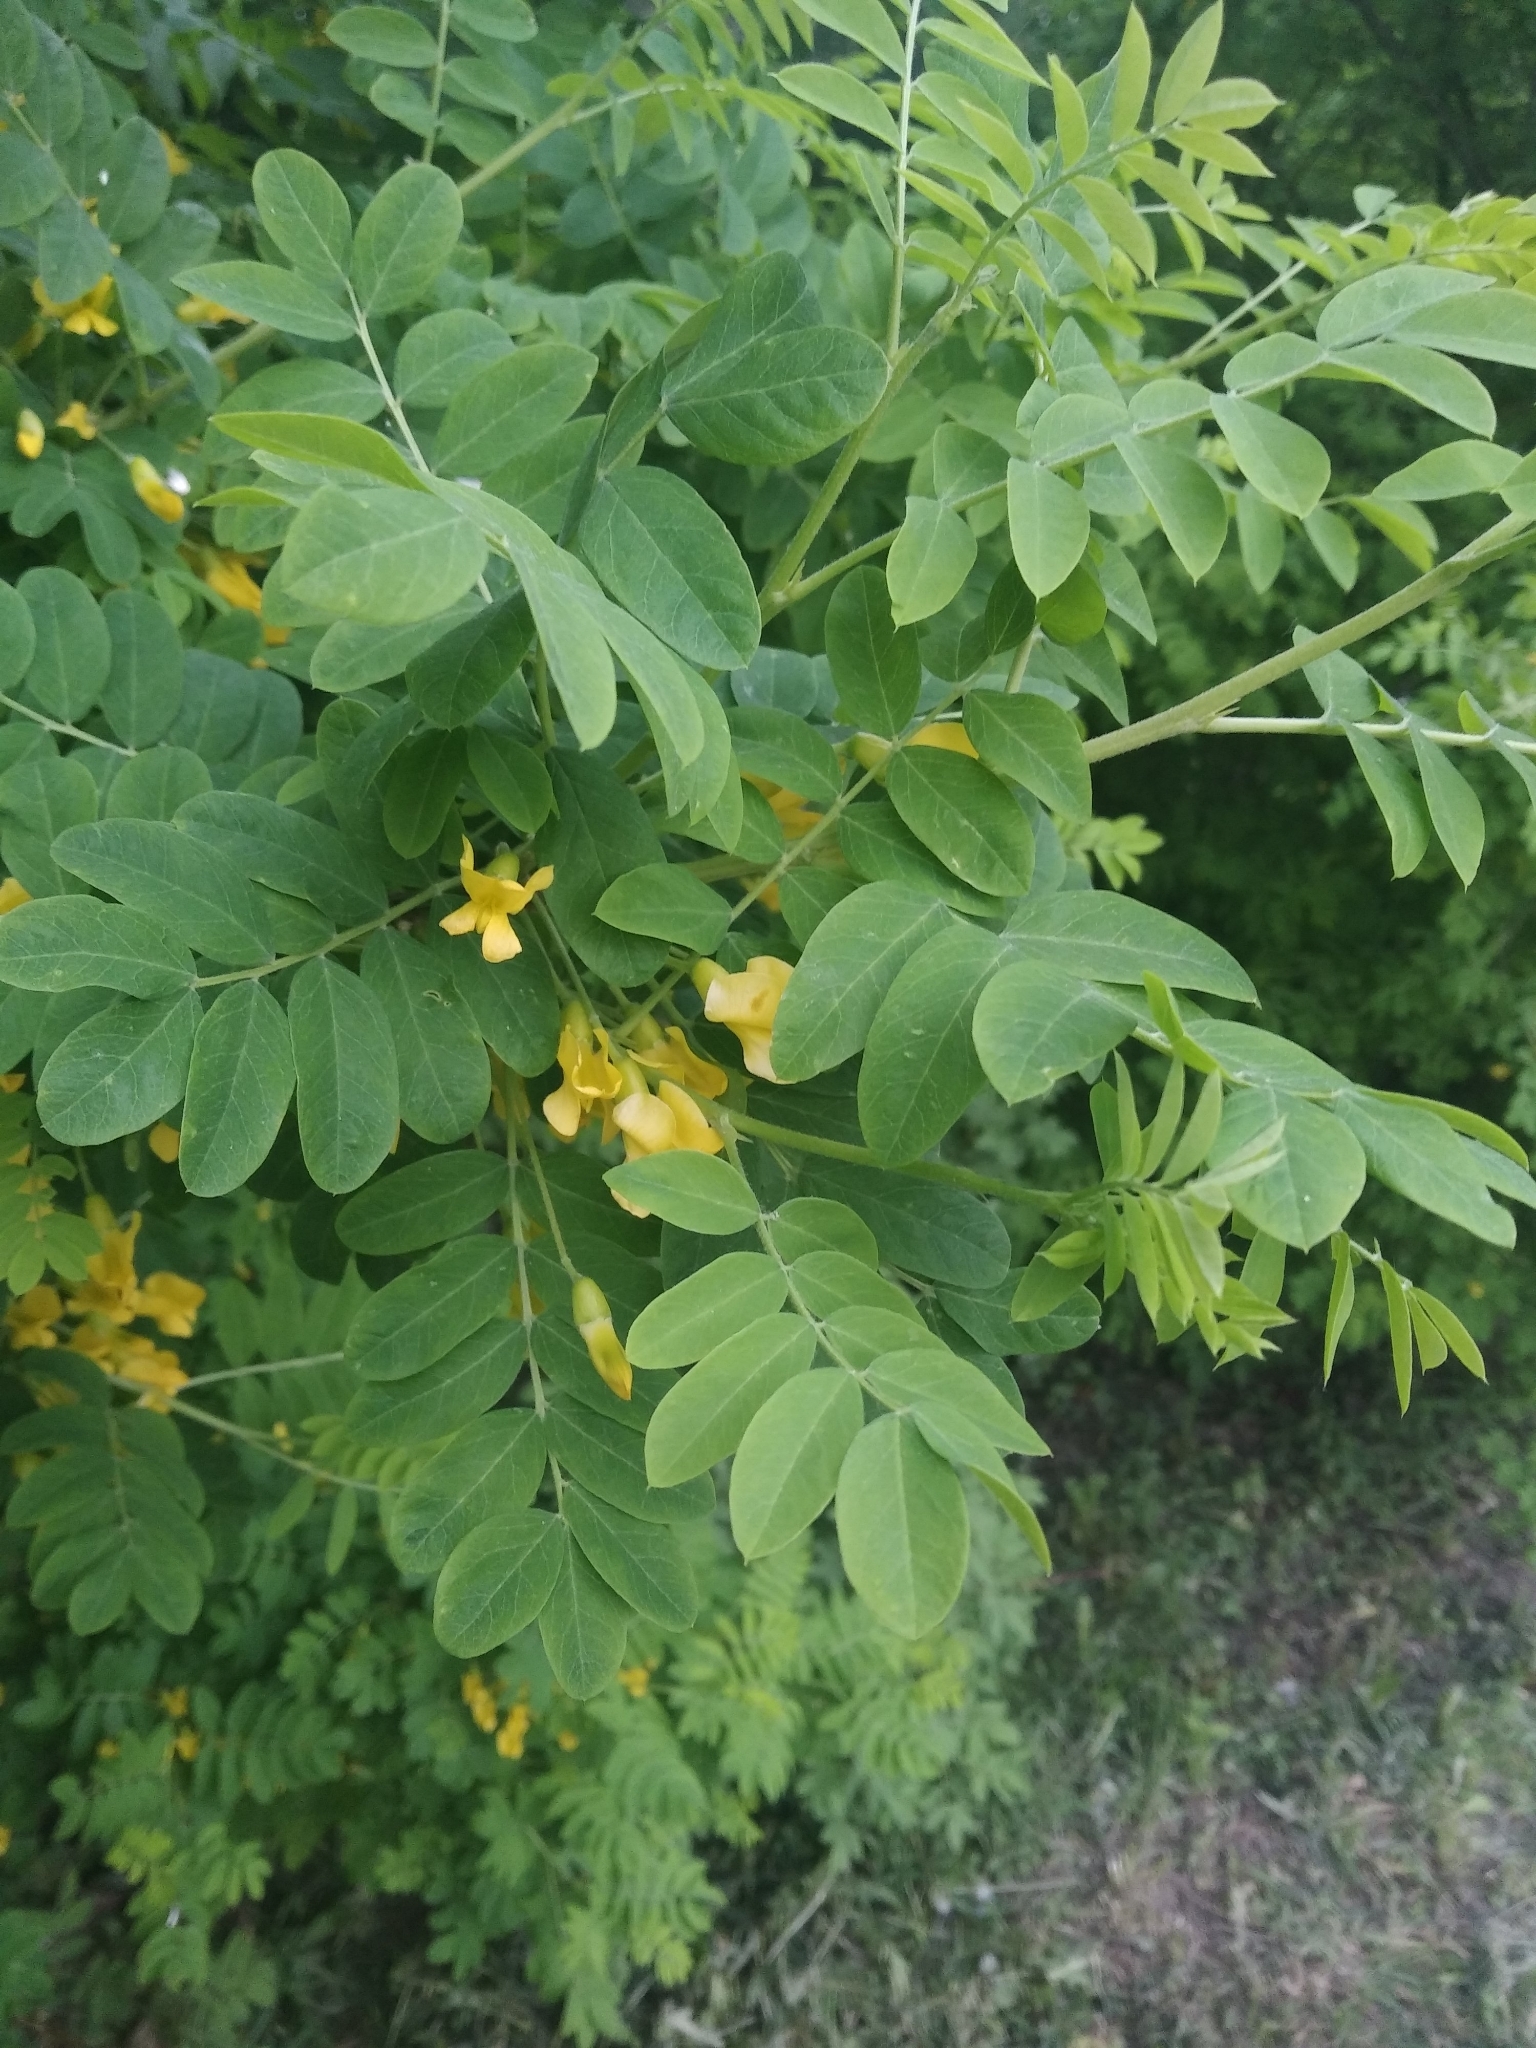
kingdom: Plantae
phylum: Tracheophyta
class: Magnoliopsida
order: Fabales
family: Fabaceae
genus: Caragana
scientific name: Caragana arborescens
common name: Siberian peashrub
